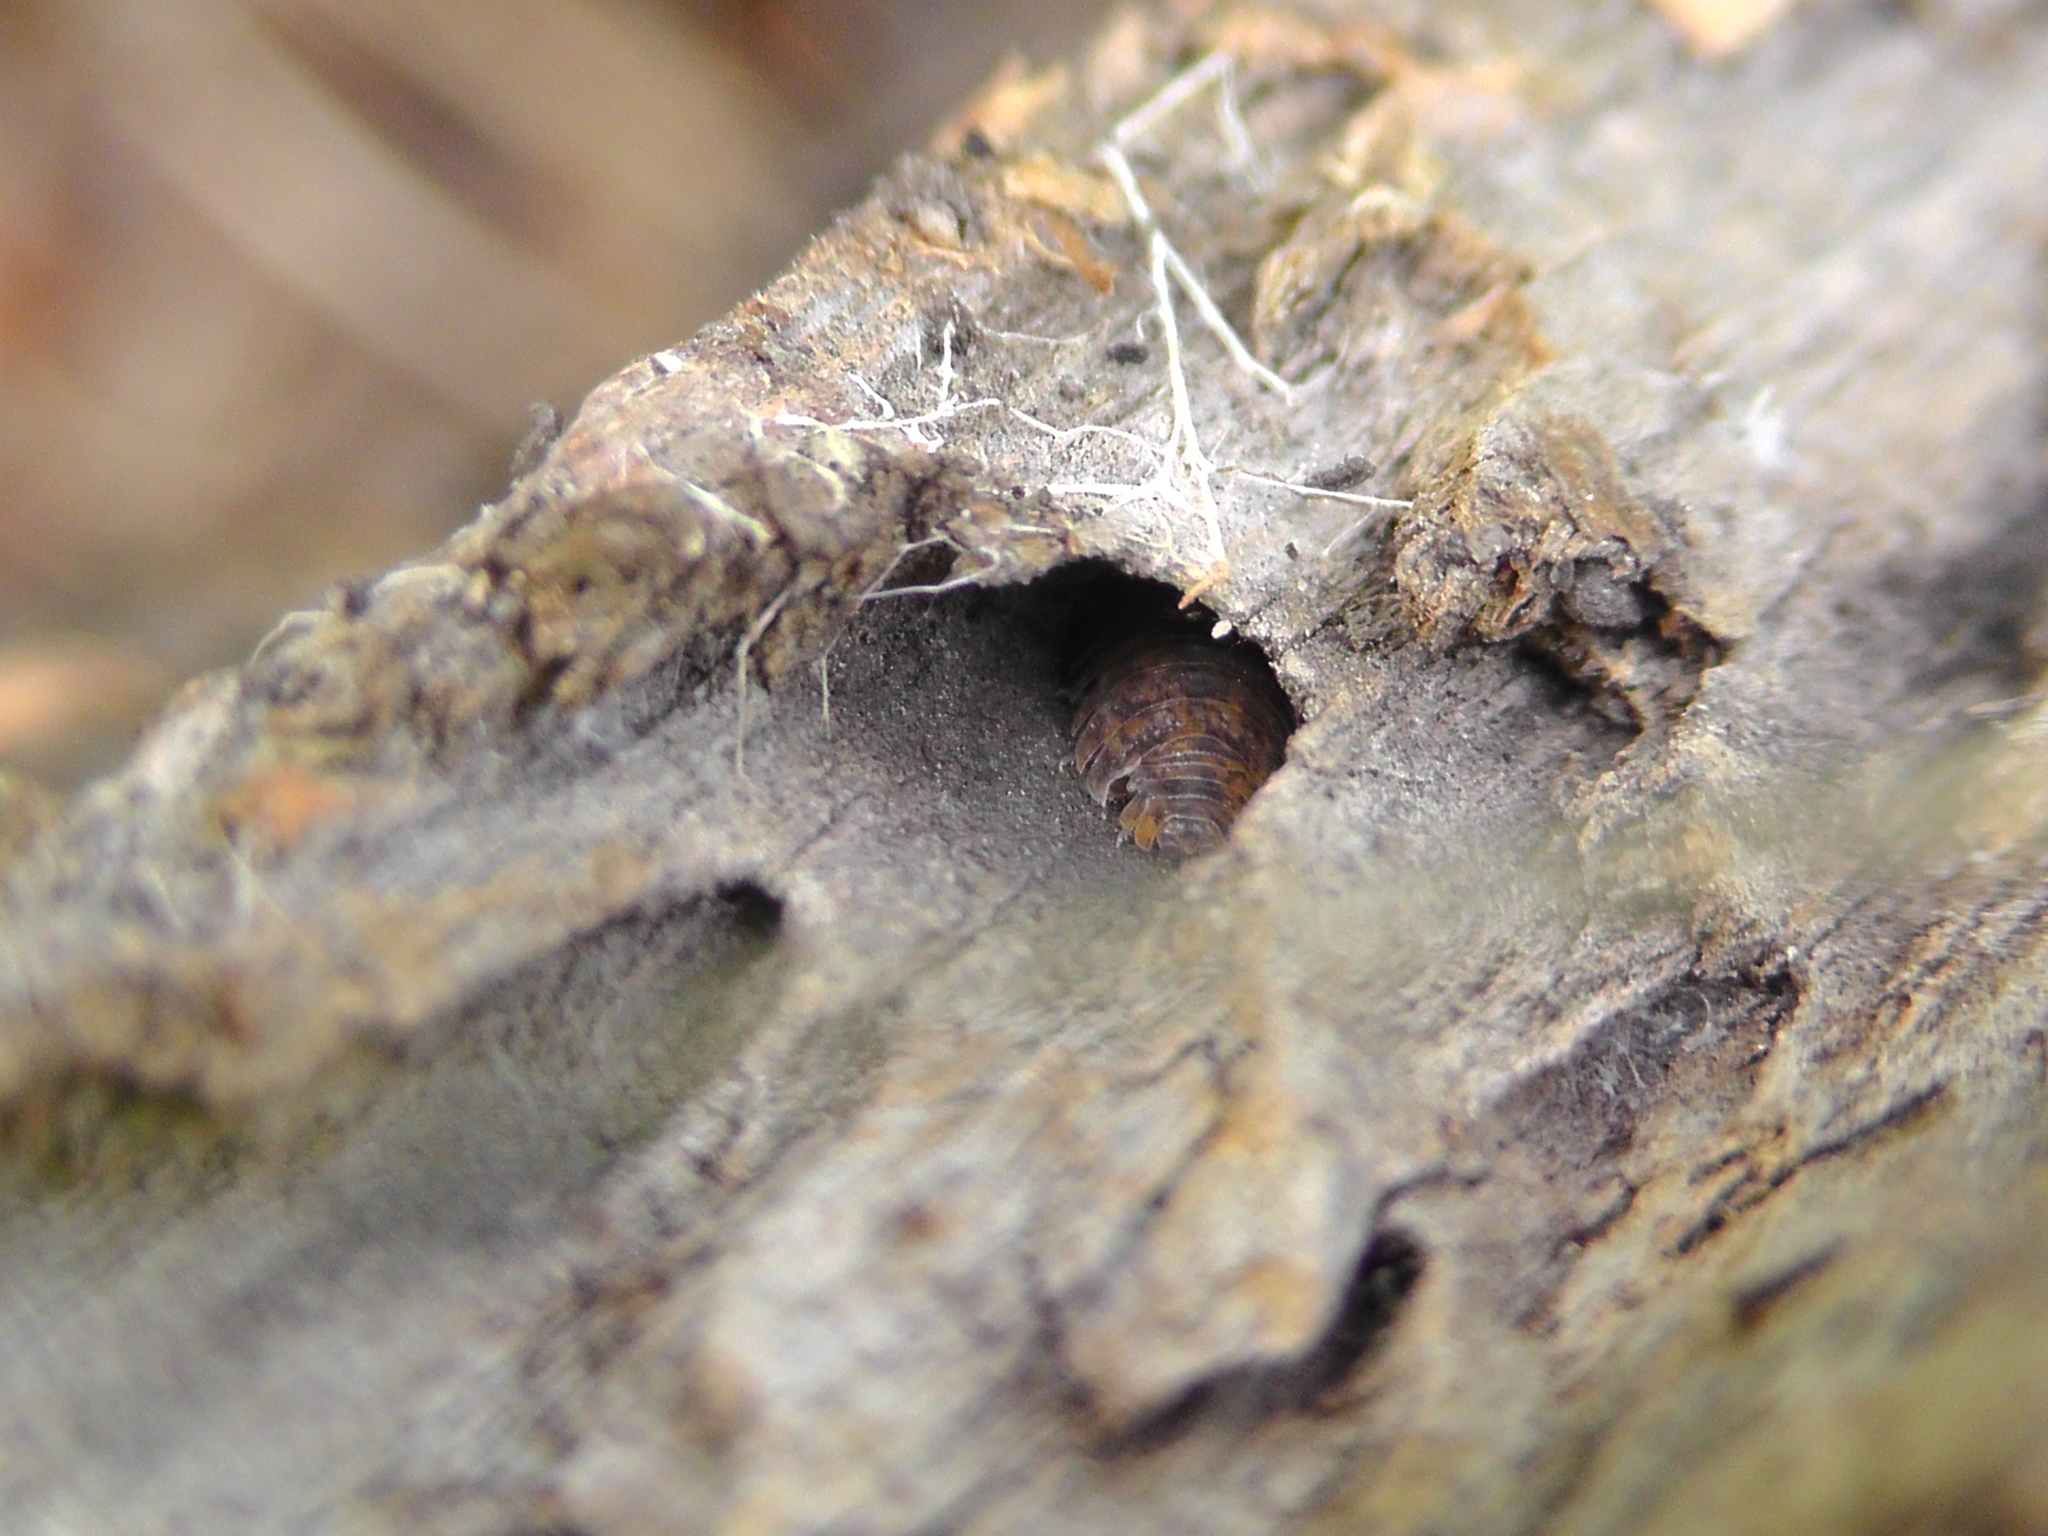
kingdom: Animalia
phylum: Arthropoda
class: Malacostraca
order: Isopoda
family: Trachelipodidae
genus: Trachelipus
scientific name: Trachelipus rathkii
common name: Isopod
